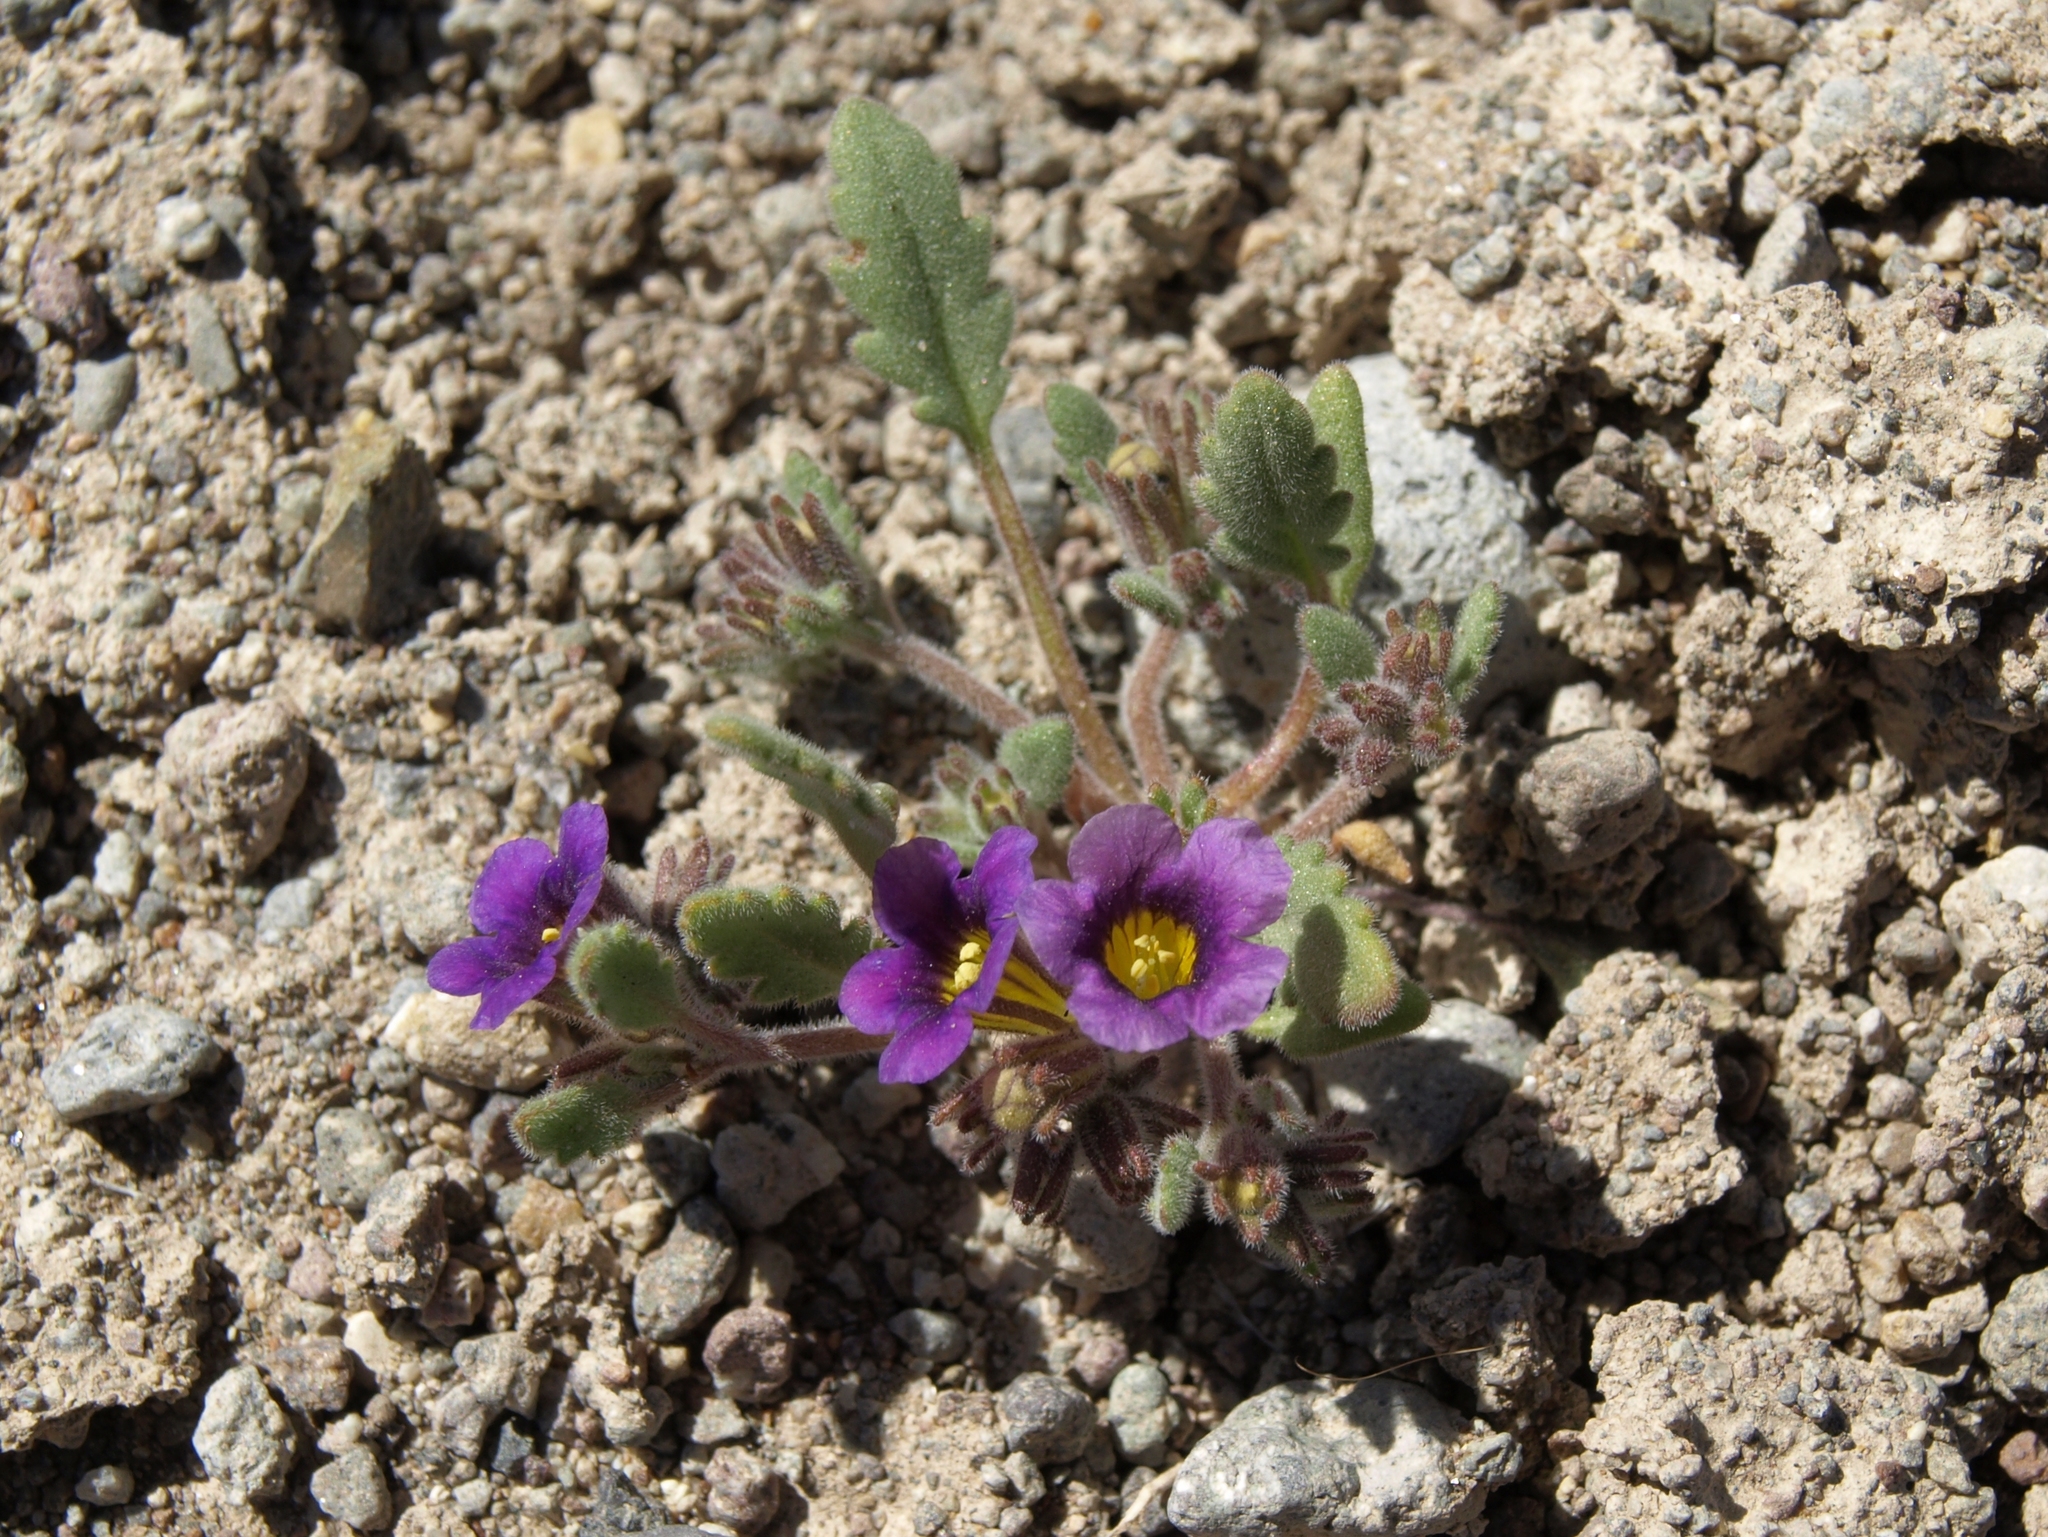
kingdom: Plantae
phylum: Tracheophyta
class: Magnoliopsida
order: Boraginales
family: Hydrophyllaceae
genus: Phacelia
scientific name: Phacelia gymnoclada
